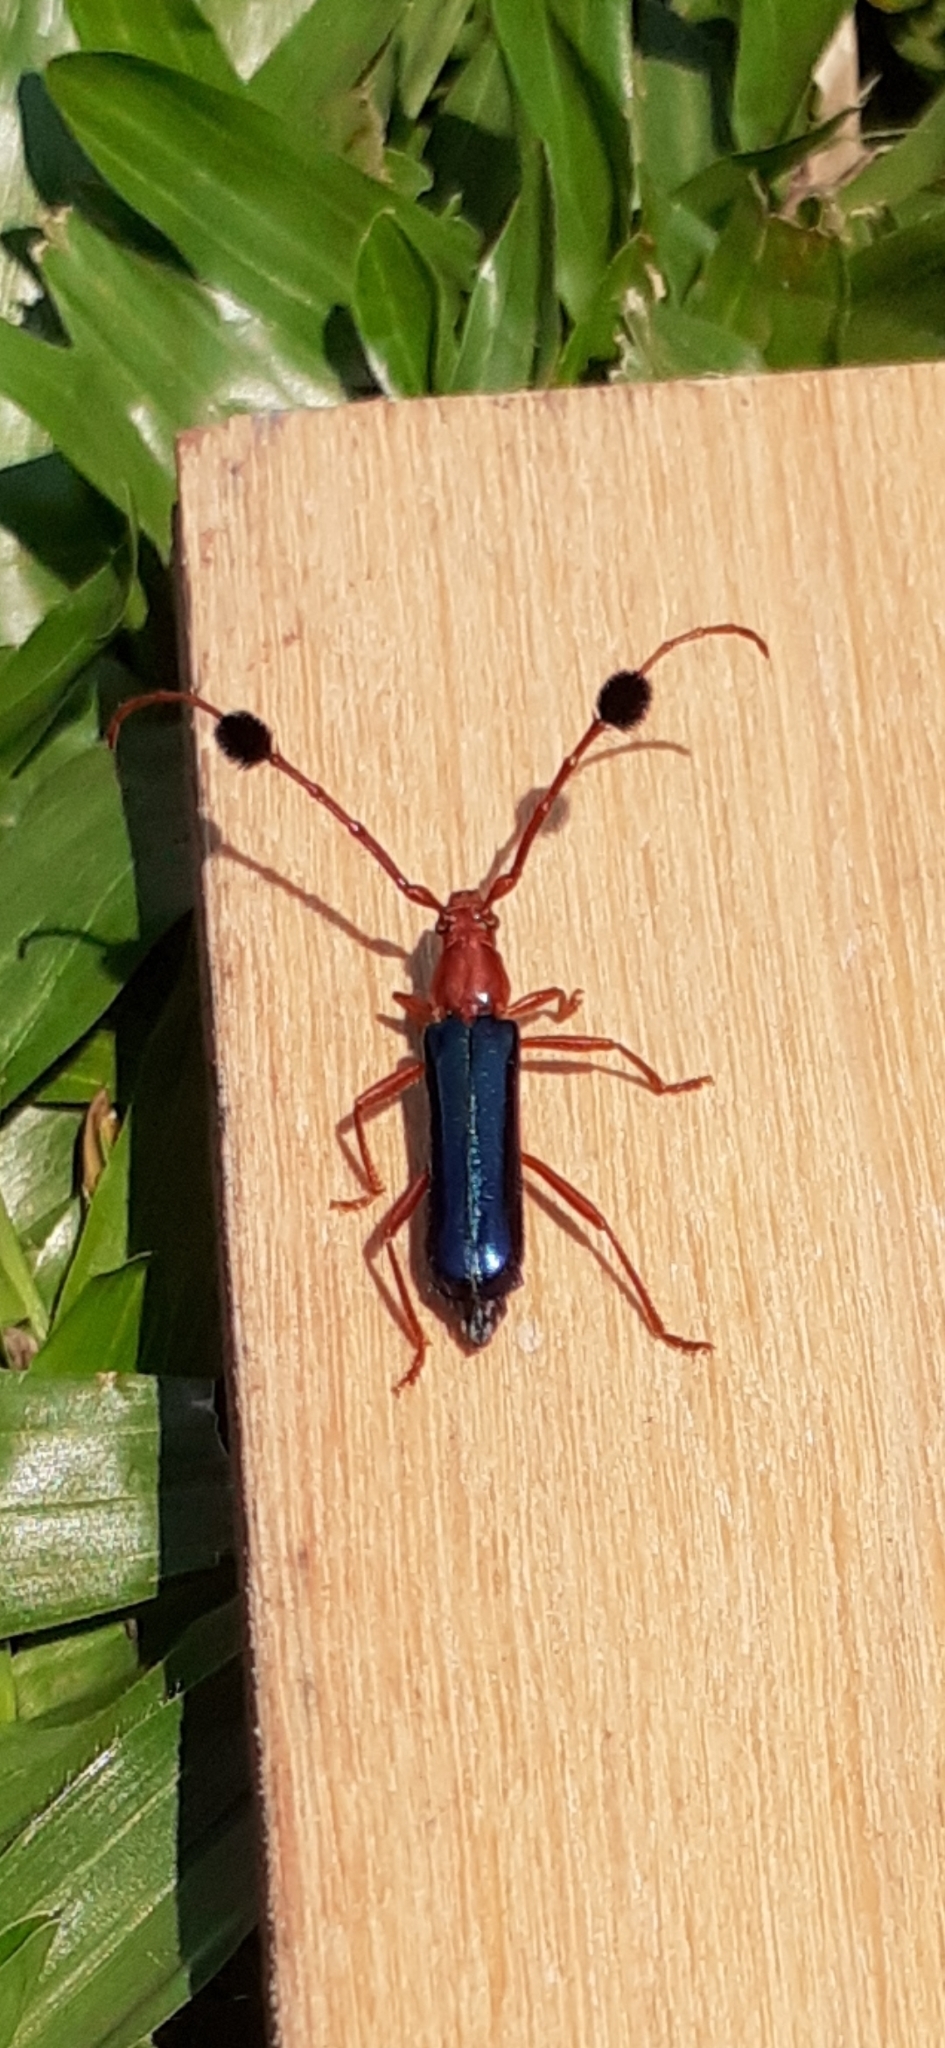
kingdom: Animalia
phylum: Arthropoda
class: Insecta
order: Coleoptera
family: Cerambycidae
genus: Compsocerus
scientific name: Compsocerus violaceus
